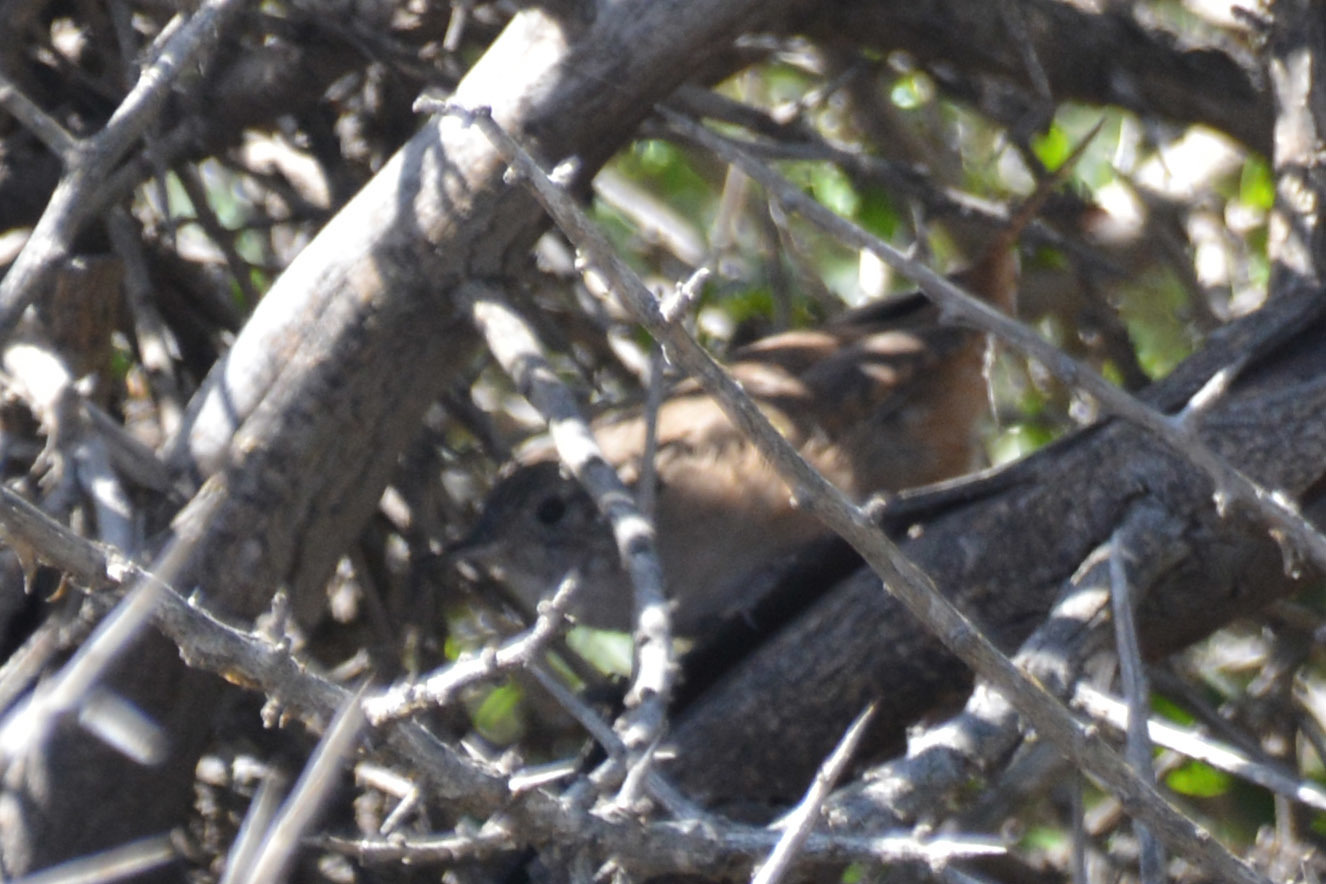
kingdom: Animalia
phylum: Chordata
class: Aves
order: Passeriformes
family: Troglodytidae
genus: Troglodytes
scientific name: Troglodytes aedon
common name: House wren
